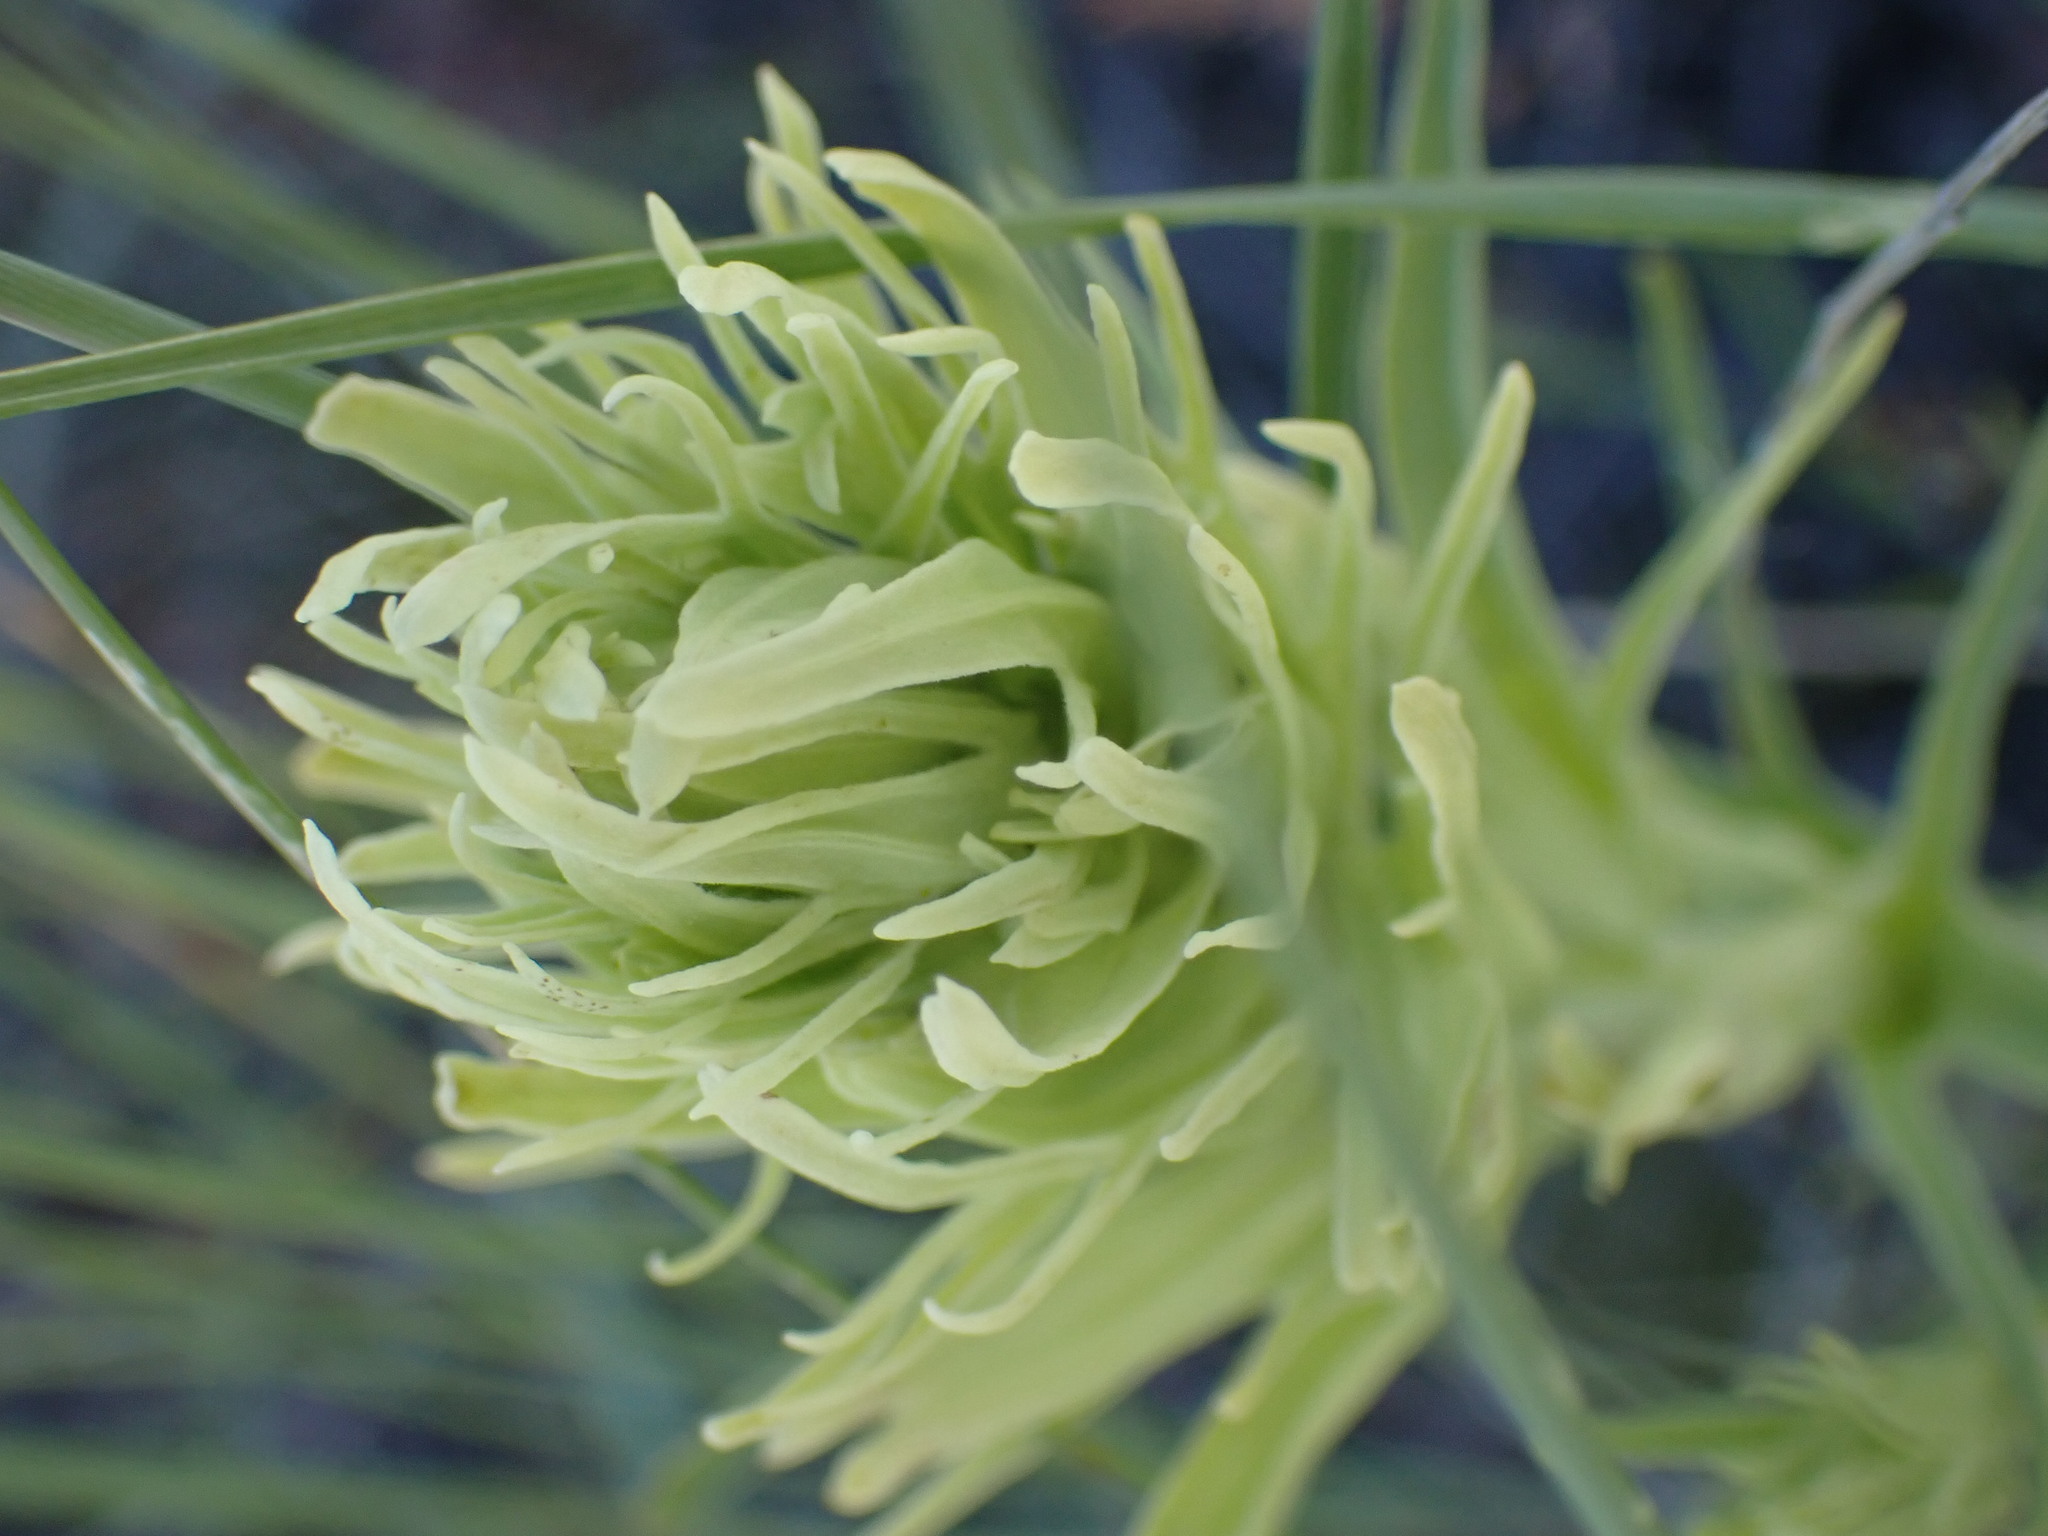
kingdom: Plantae
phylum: Tracheophyta
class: Magnoliopsida
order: Lamiales
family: Orobanchaceae
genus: Castilleja
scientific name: Castilleja thompsonii
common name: Thompson's paintbrush
